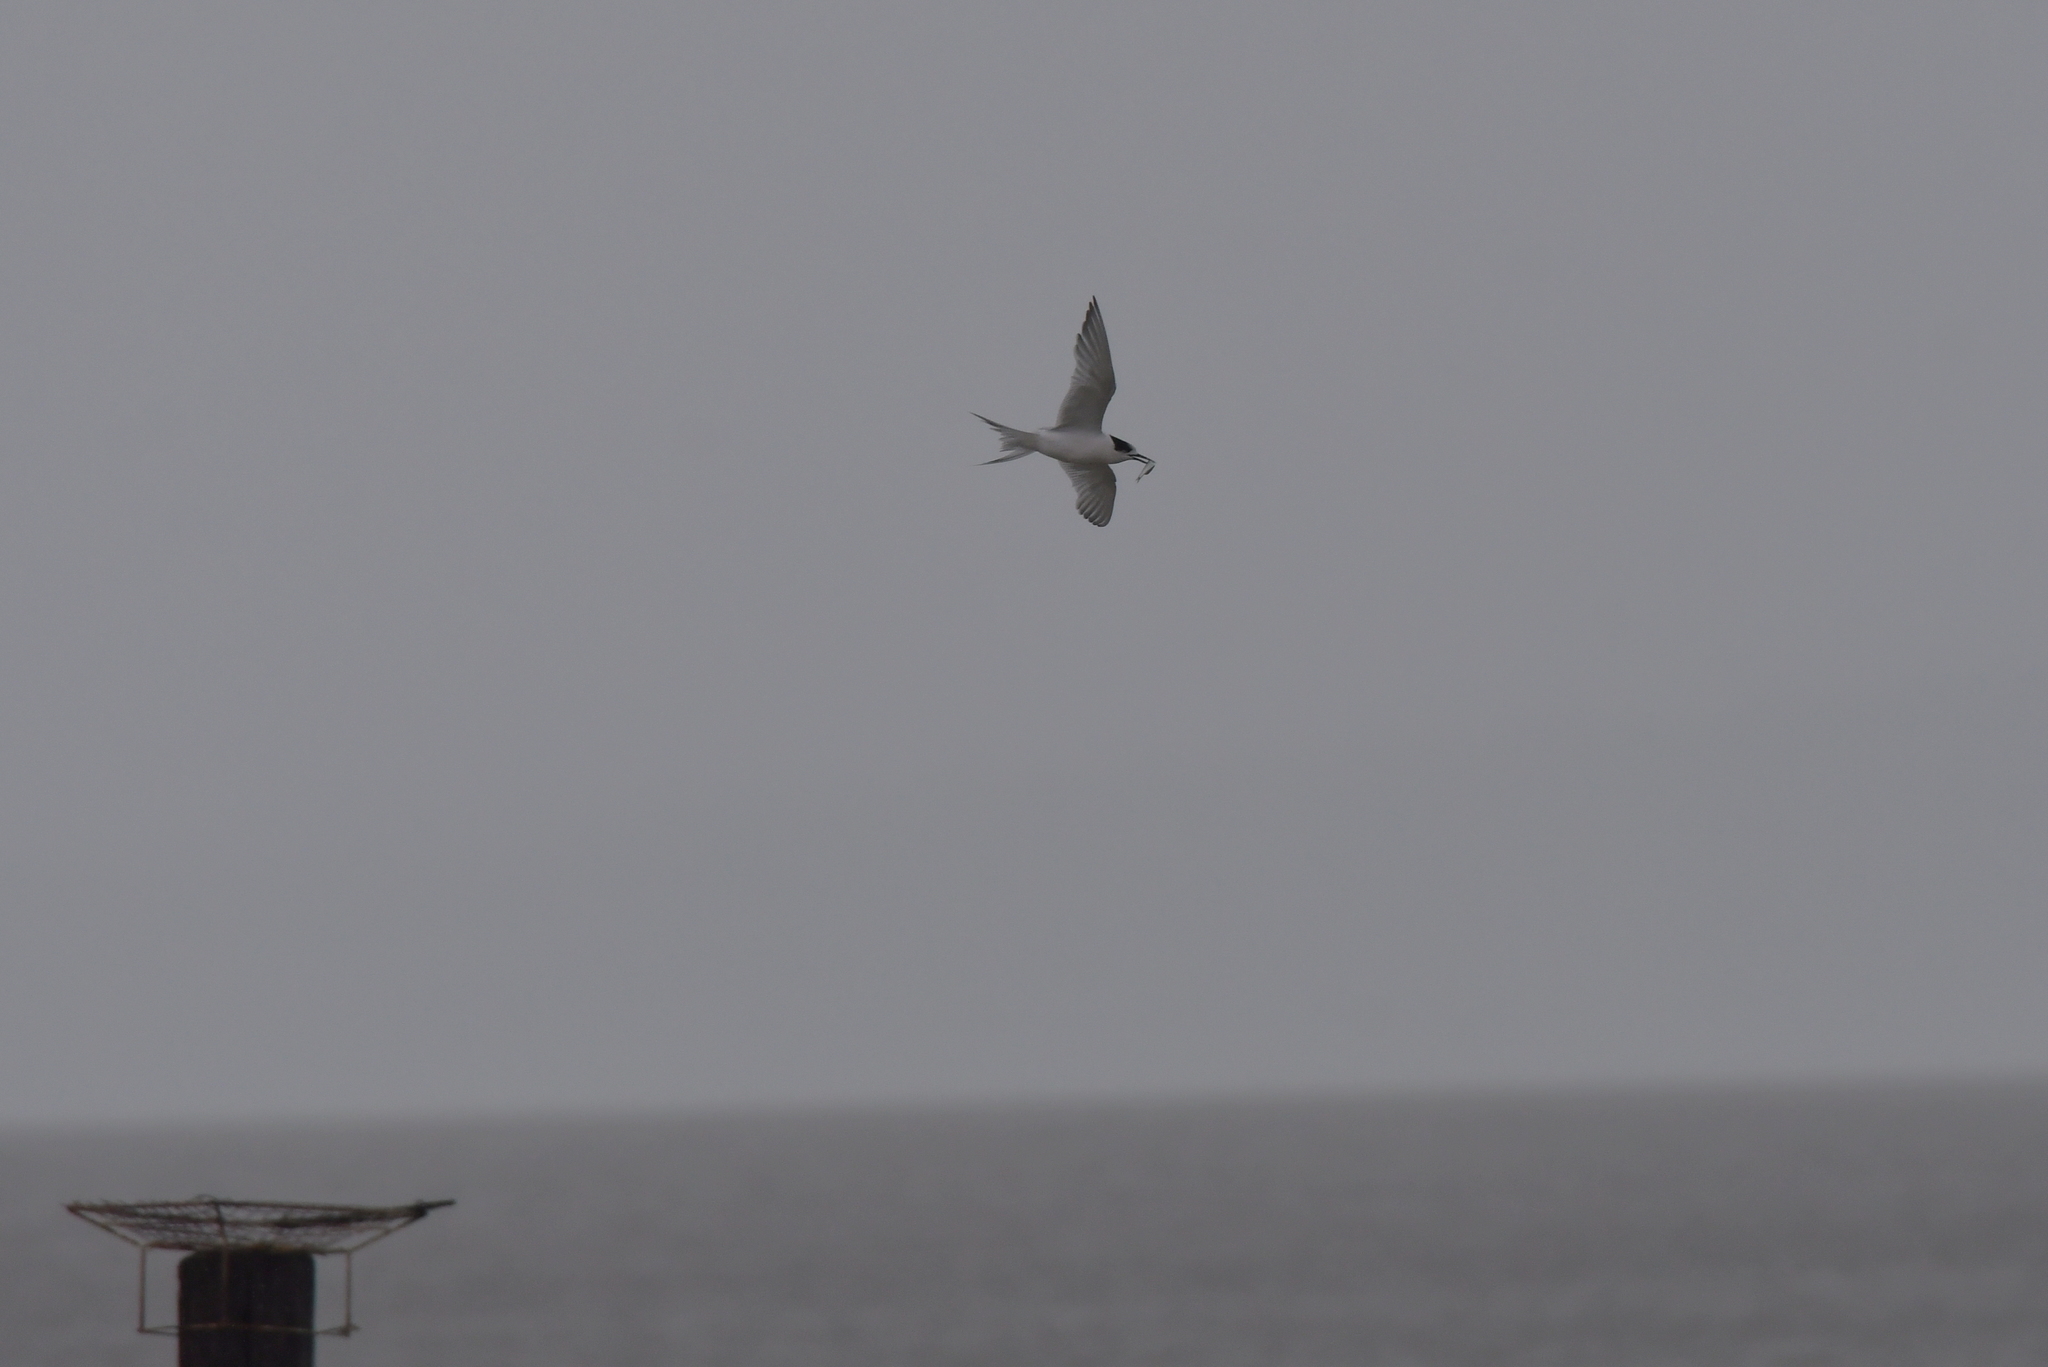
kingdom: Animalia
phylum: Chordata
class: Aves
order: Charadriiformes
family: Laridae
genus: Sterna
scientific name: Sterna striata
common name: White-fronted tern
